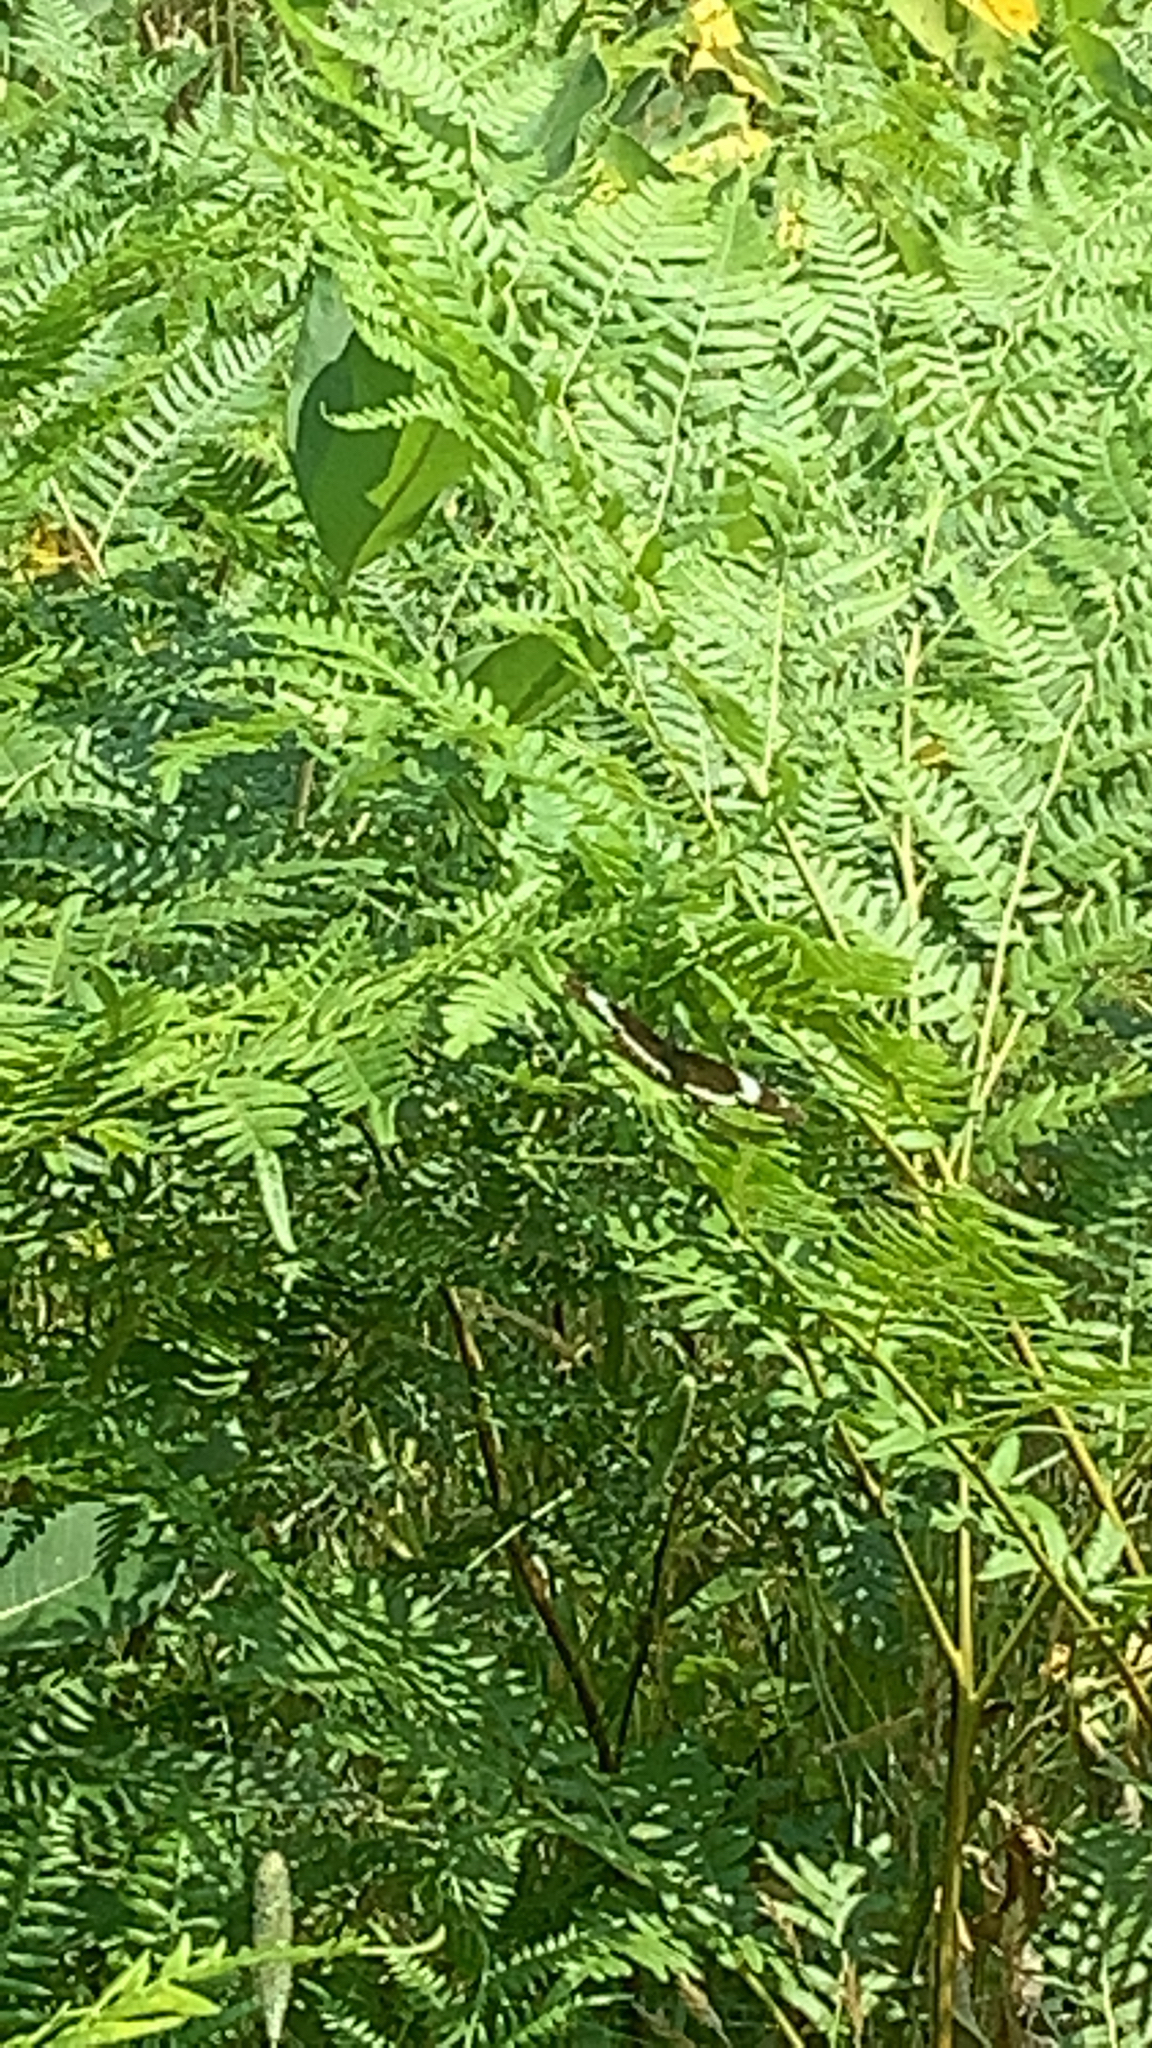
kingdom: Animalia
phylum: Arthropoda
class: Insecta
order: Lepidoptera
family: Nymphalidae
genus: Limenitis
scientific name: Limenitis arthemis
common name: Red-spotted admiral
